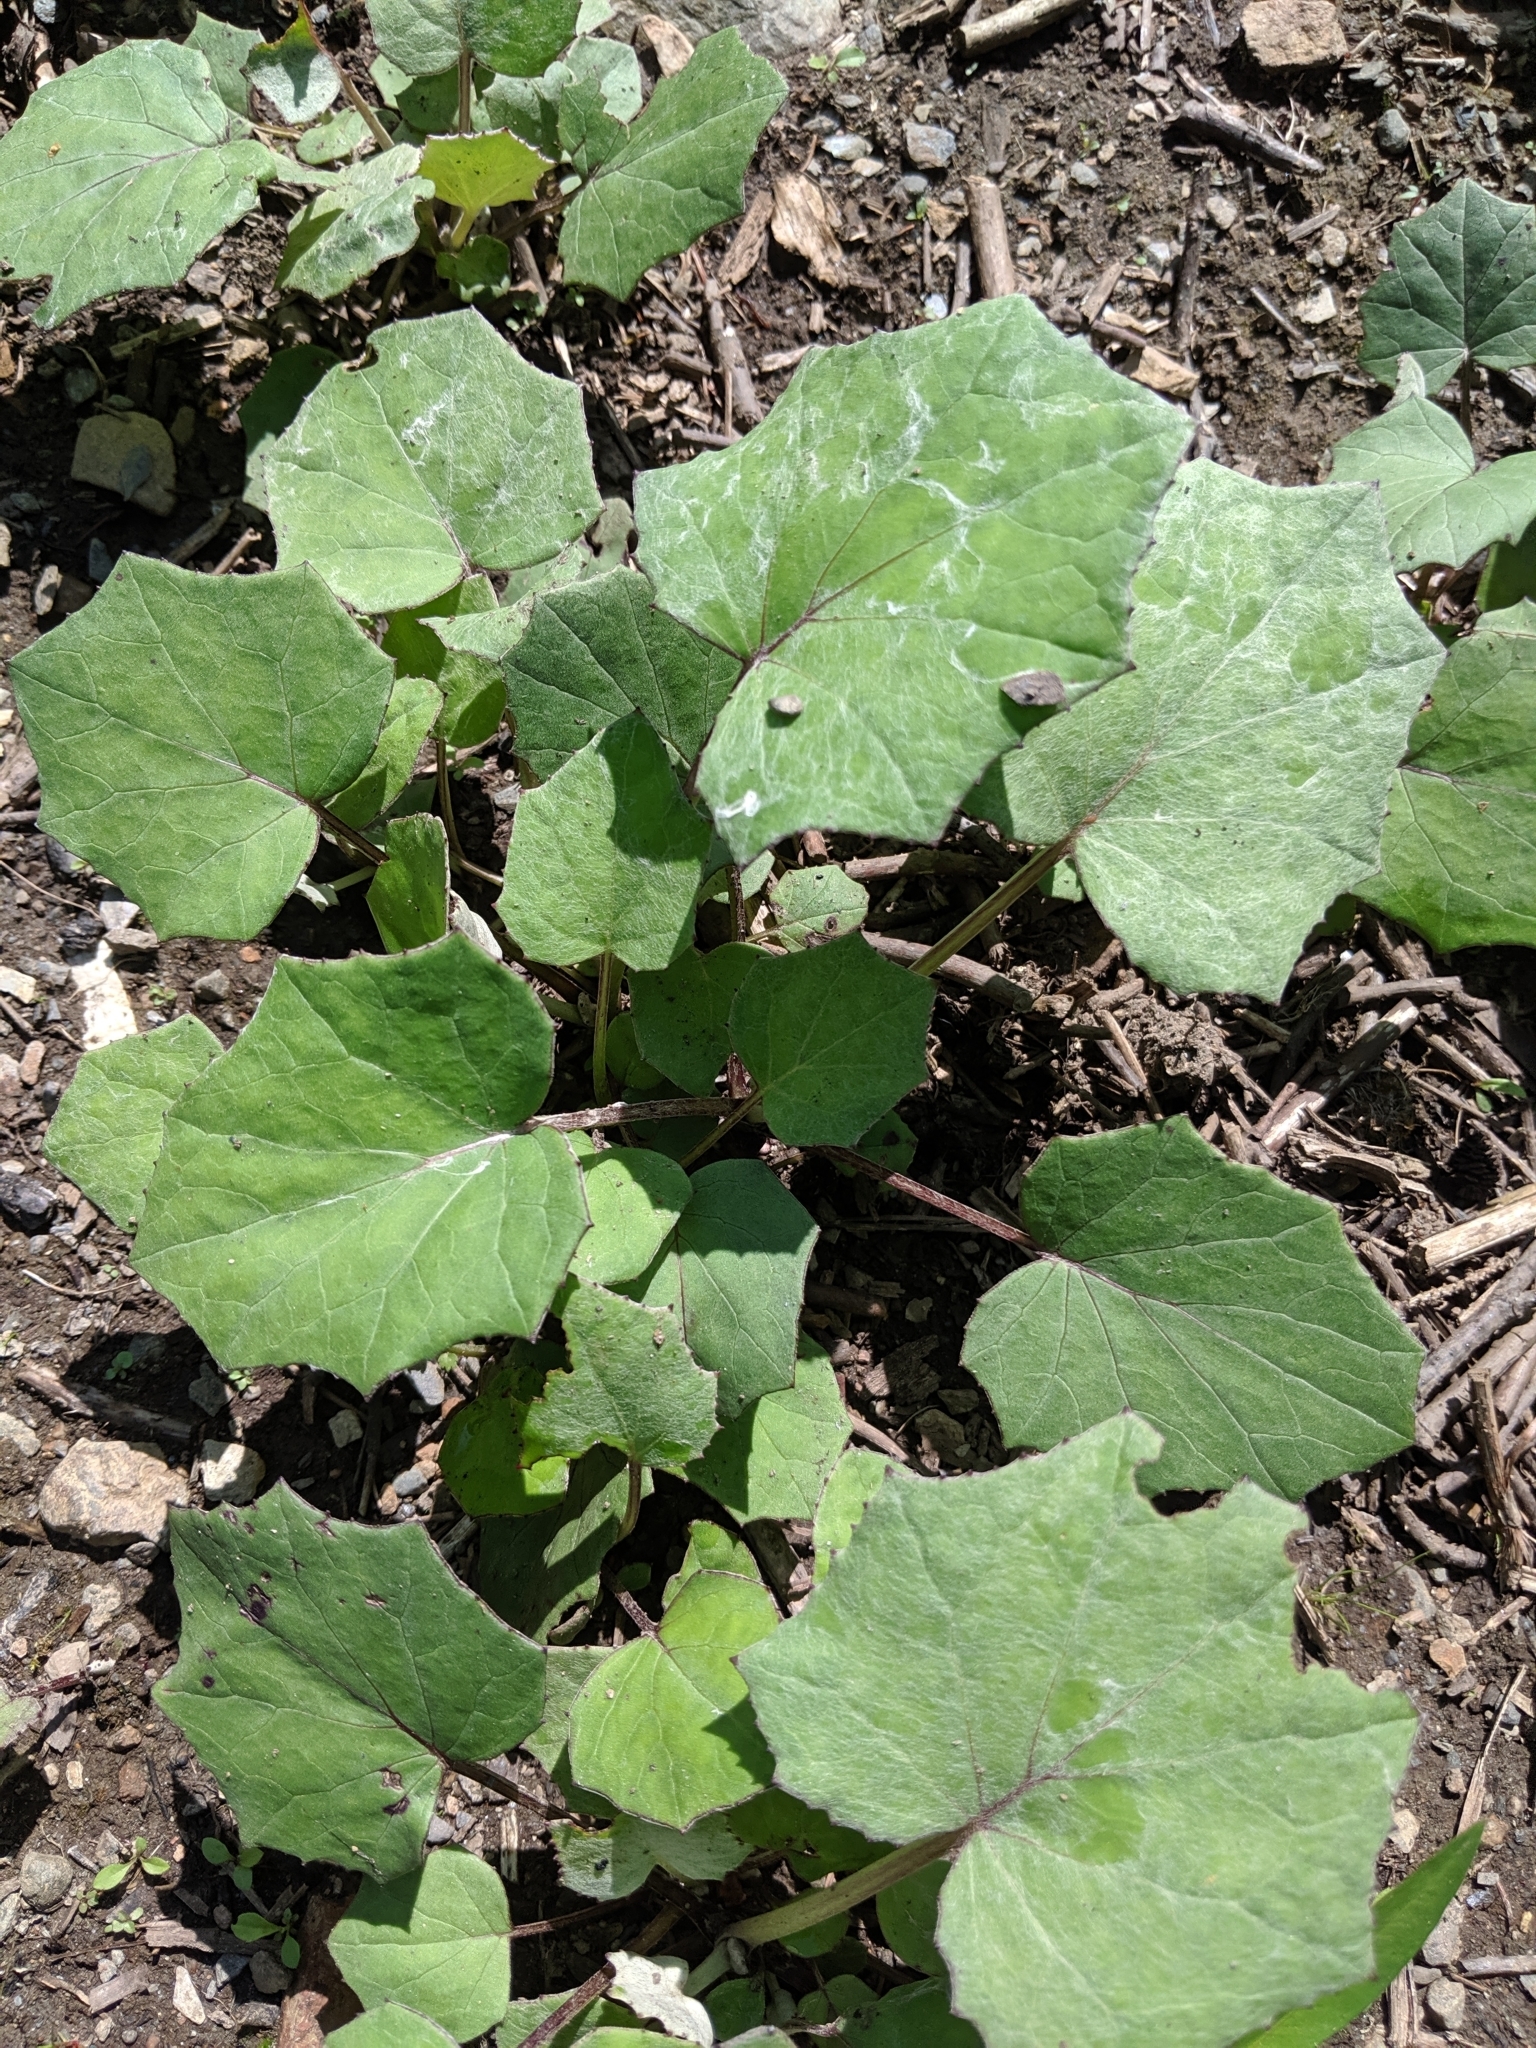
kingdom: Plantae
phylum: Tracheophyta
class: Magnoliopsida
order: Asterales
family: Asteraceae
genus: Tussilago
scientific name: Tussilago farfara
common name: Coltsfoot
